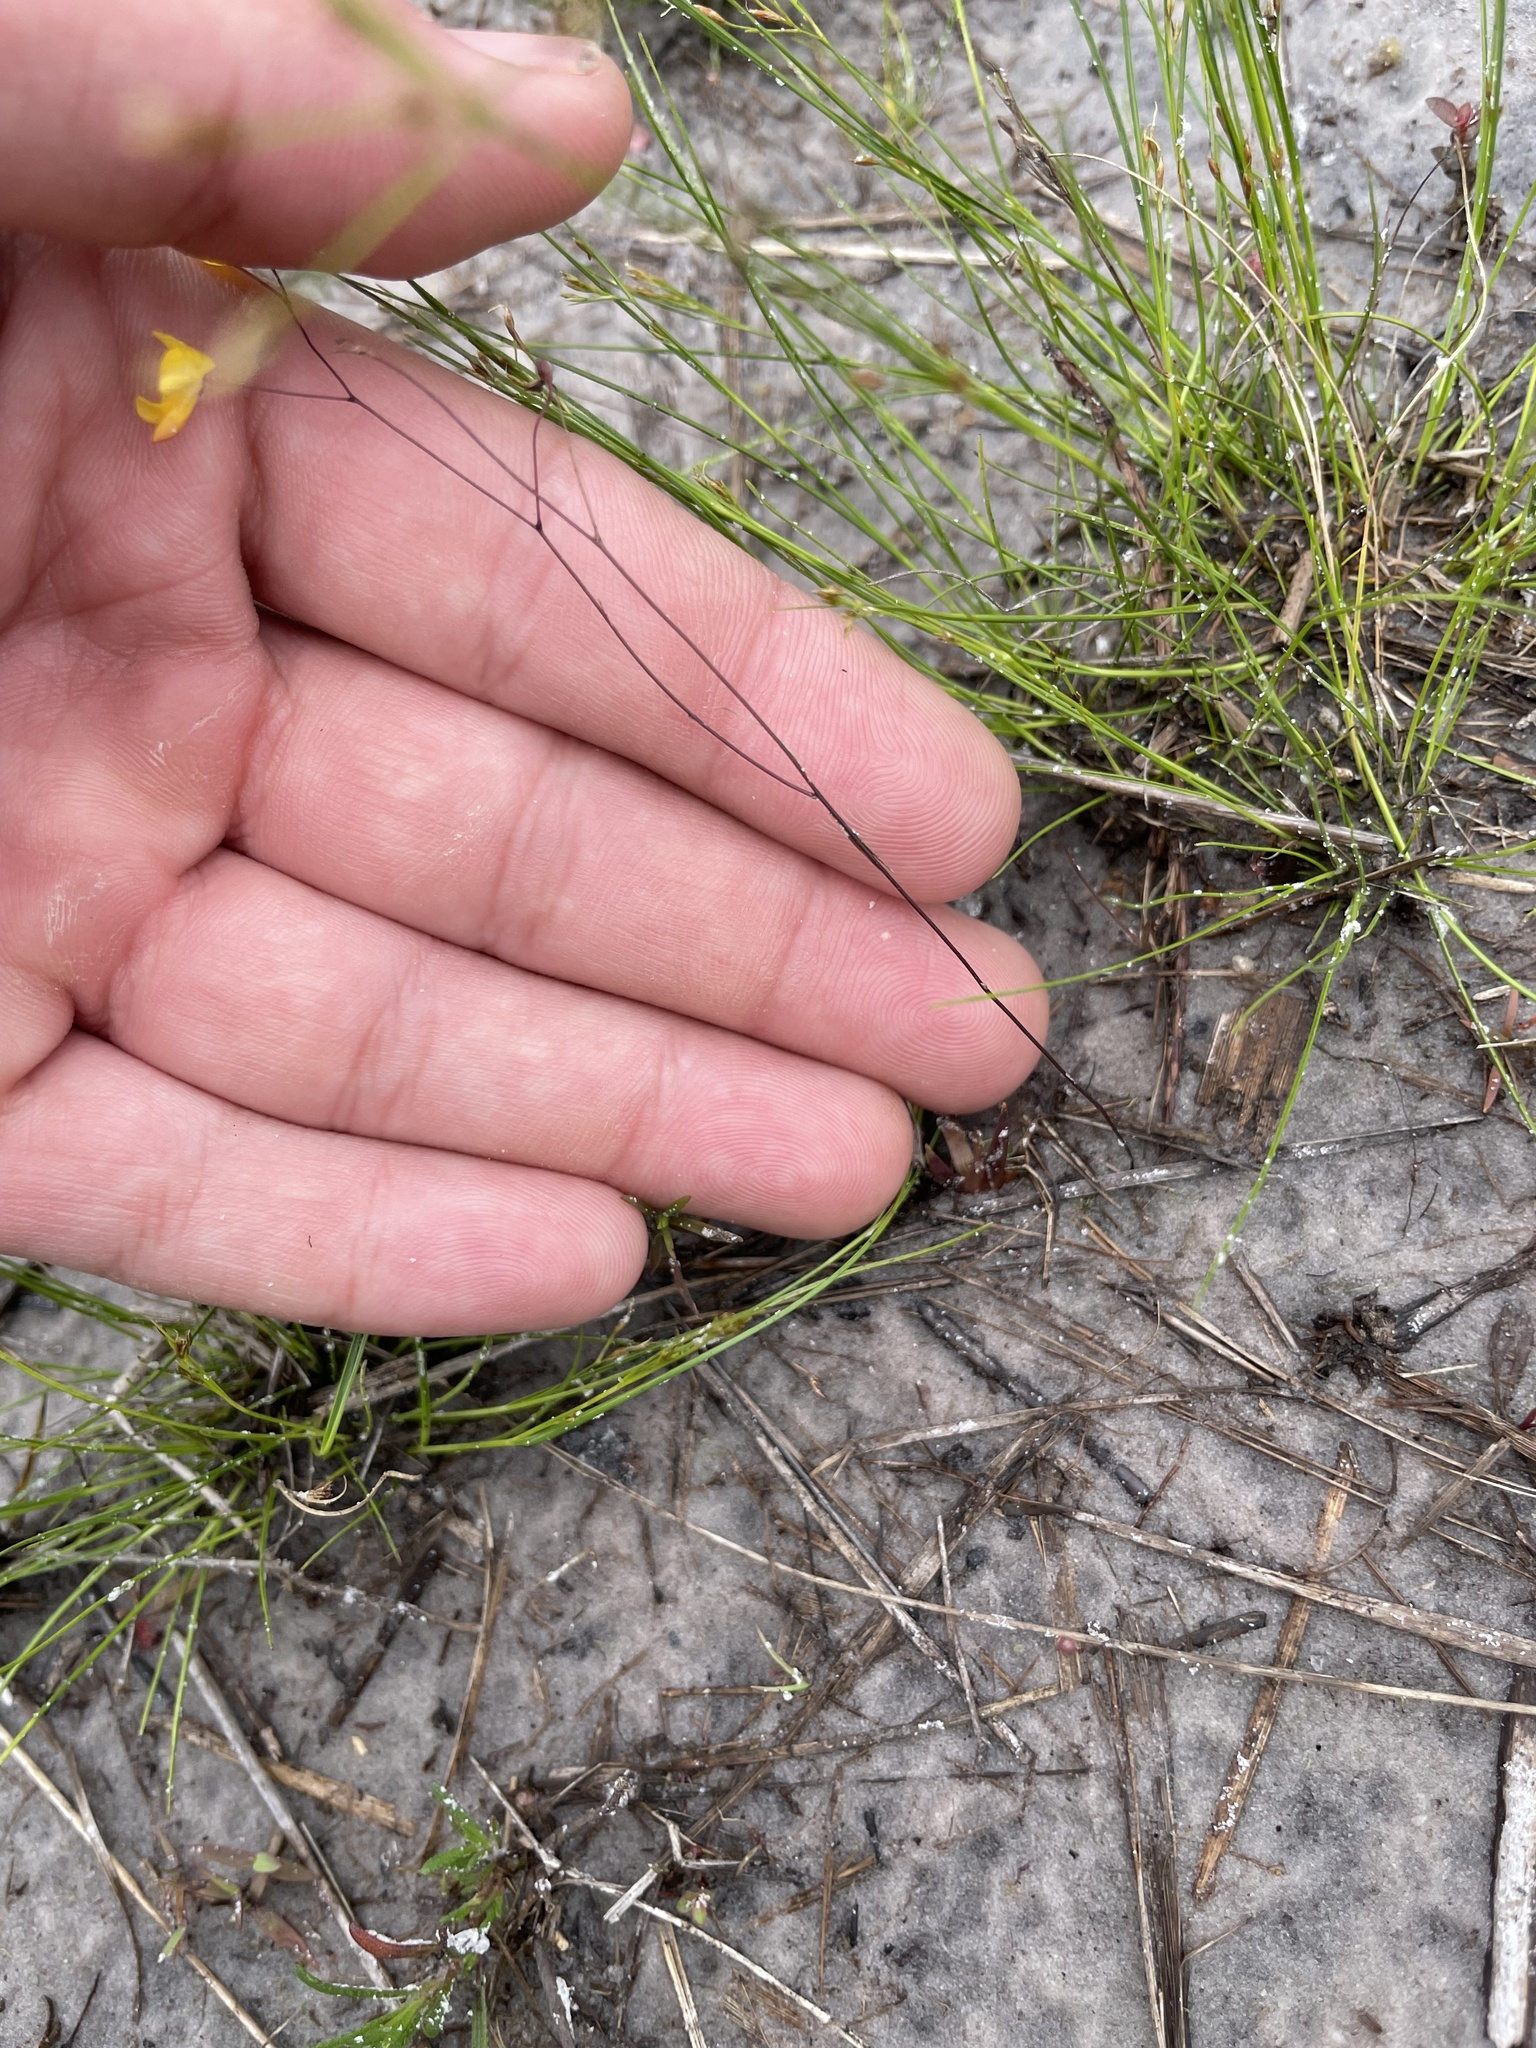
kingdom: Plantae
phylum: Tracheophyta
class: Magnoliopsida
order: Lamiales
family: Lentibulariaceae
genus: Utricularia
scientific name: Utricularia subulata
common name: Tiny bladderwort
